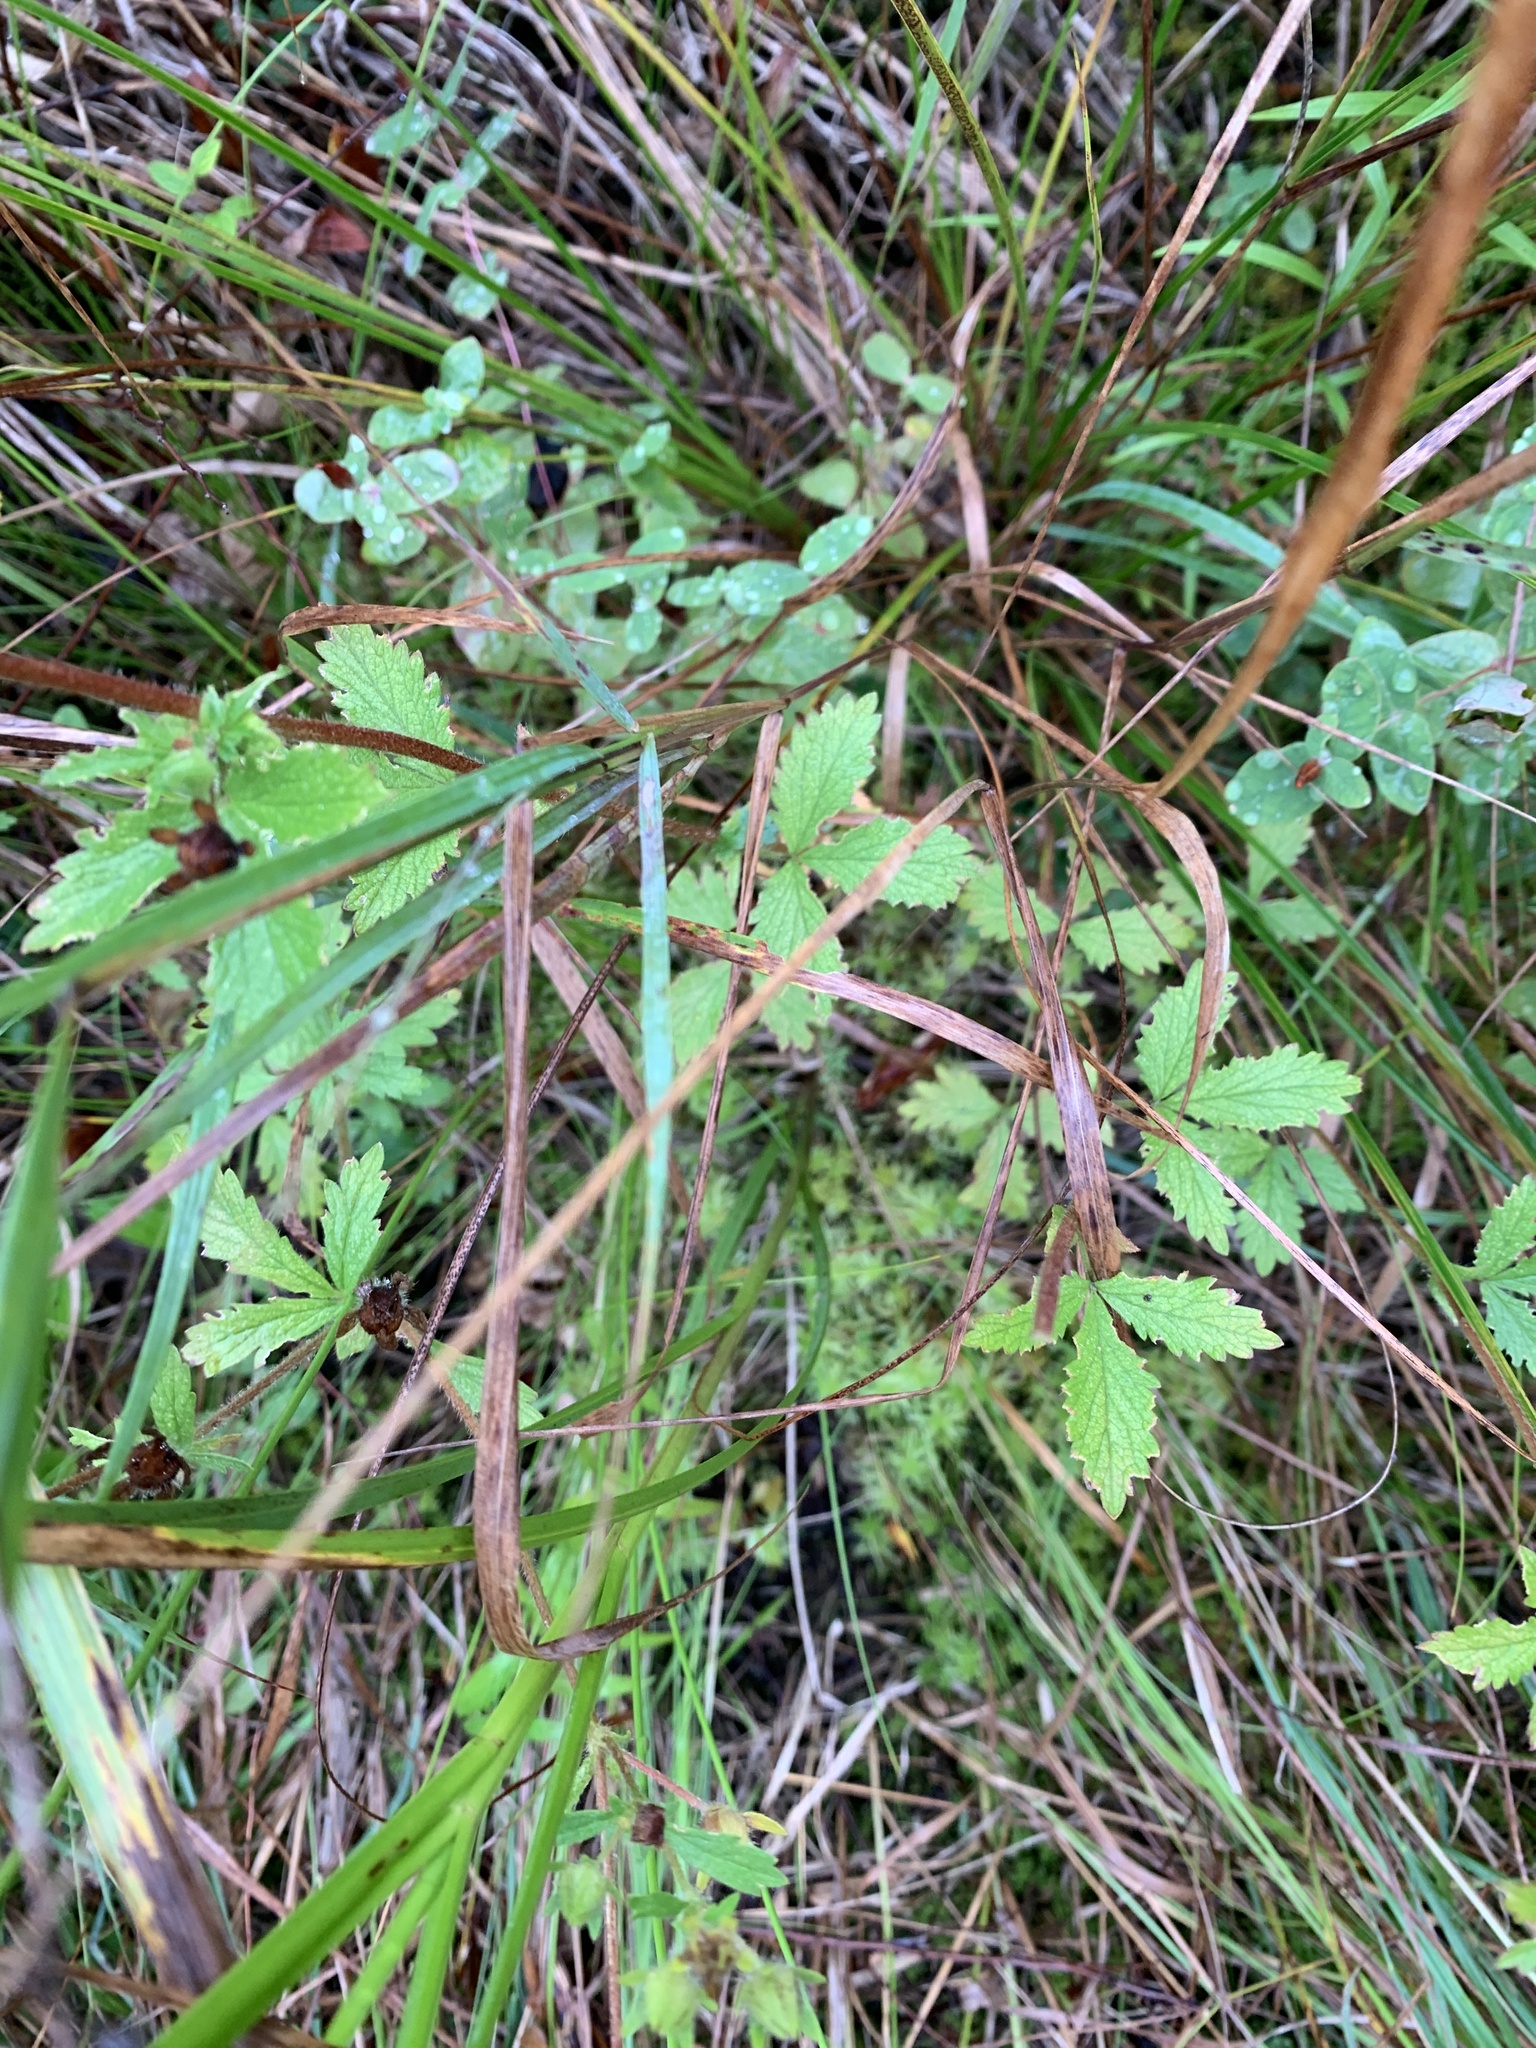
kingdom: Plantae
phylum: Tracheophyta
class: Magnoliopsida
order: Rosales
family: Rosaceae
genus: Potentilla
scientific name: Potentilla norvegica
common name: Ternate-leaved cinquefoil
